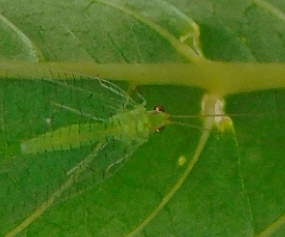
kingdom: Animalia
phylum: Arthropoda
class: Insecta
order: Neuroptera
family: Chrysopidae
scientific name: Chrysopidae
